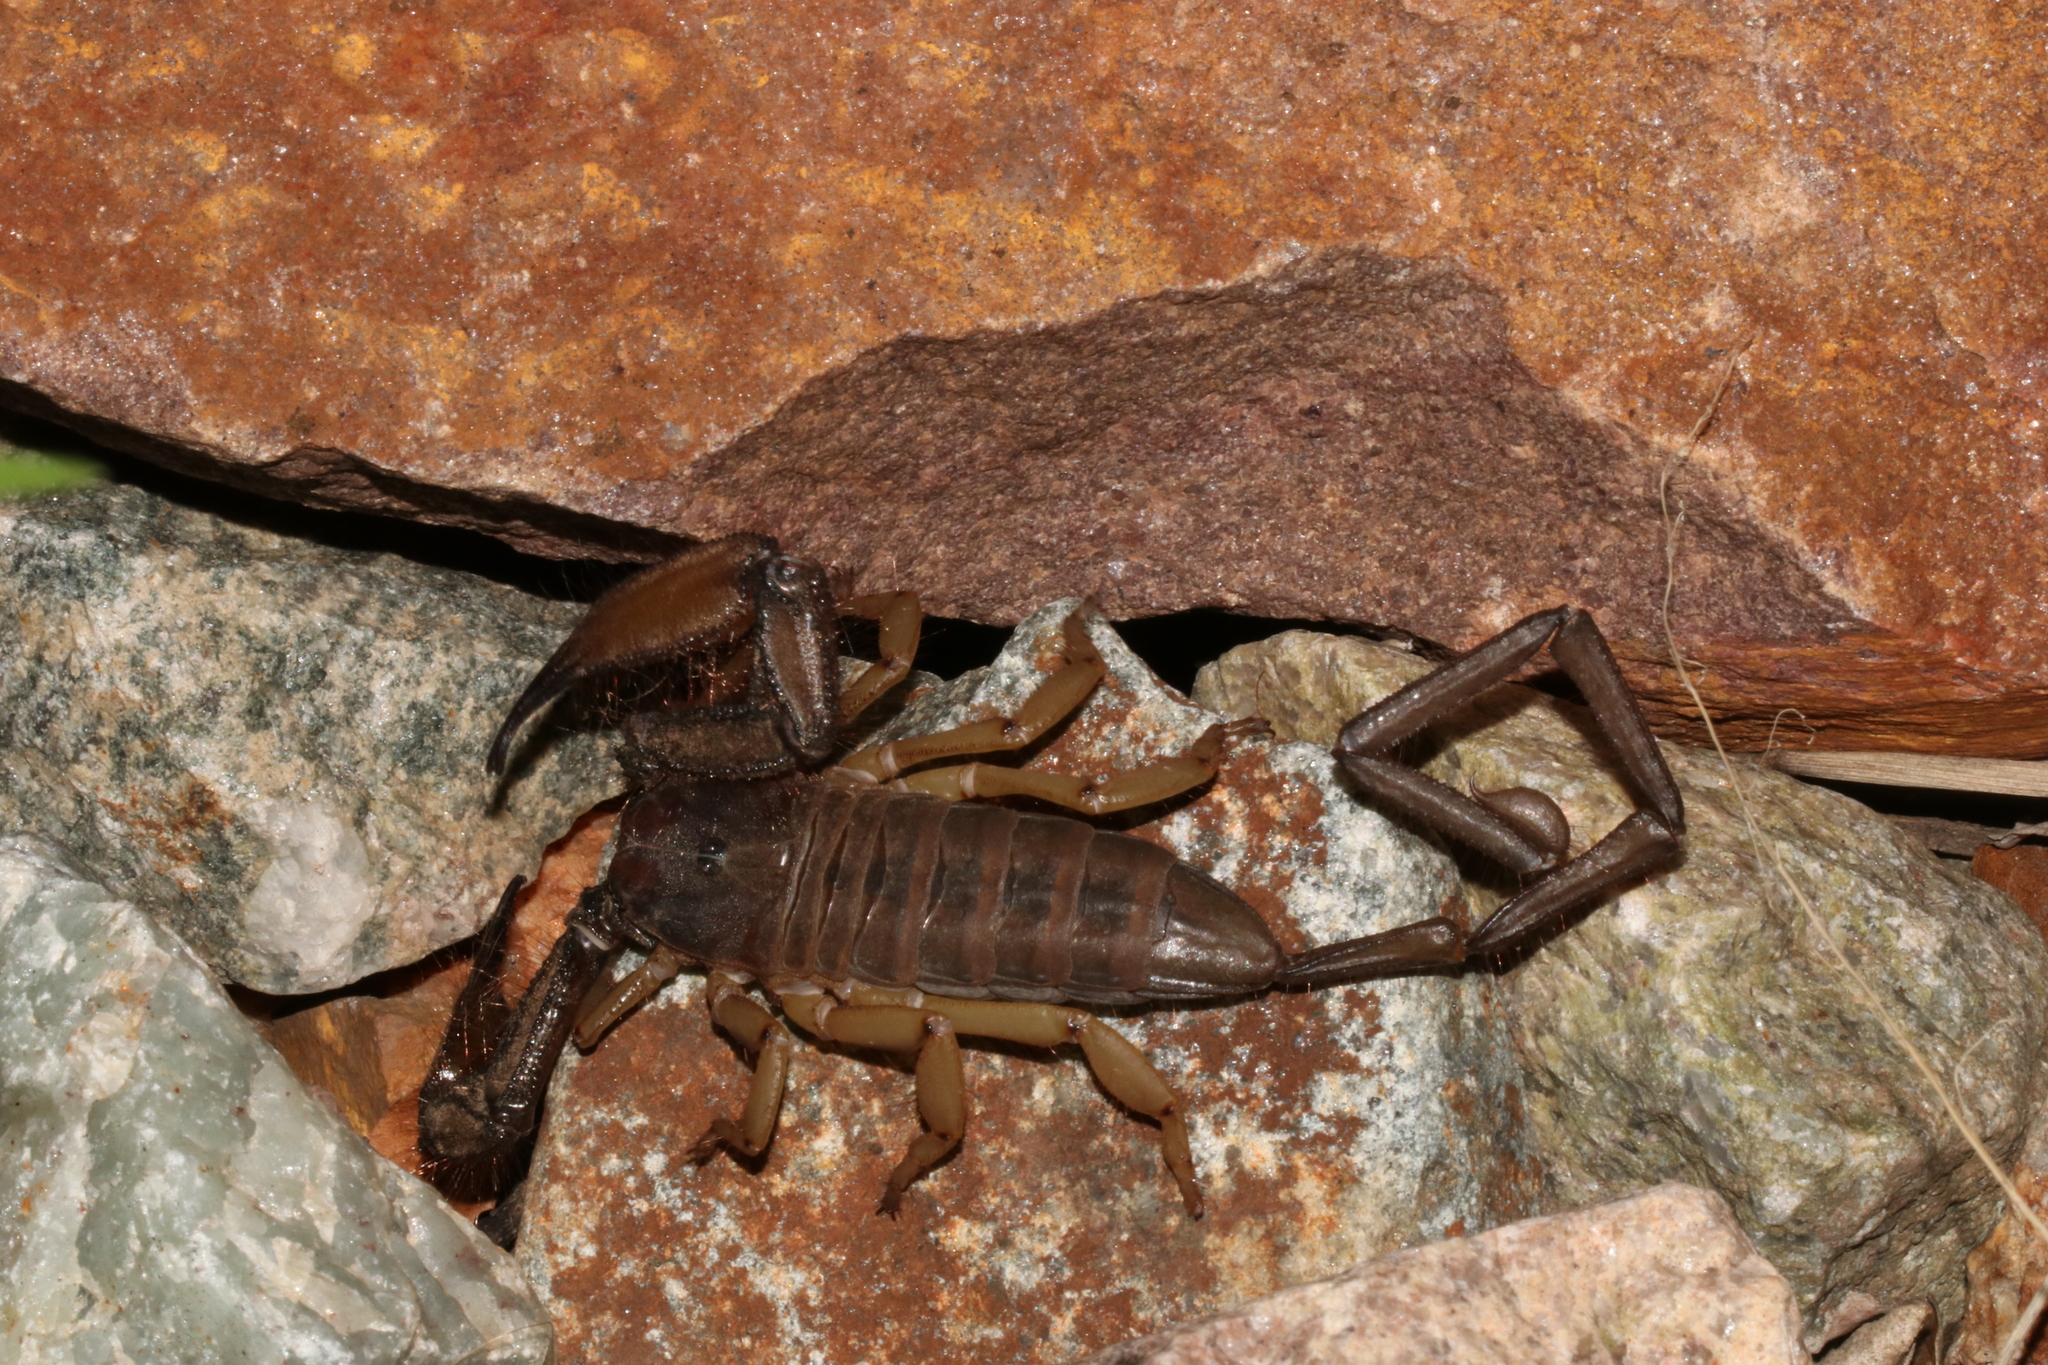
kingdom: Animalia
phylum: Arthropoda
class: Arachnida
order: Scorpiones
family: Hormuridae
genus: Hadogenes
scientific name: Hadogenes soutpansbergensis
